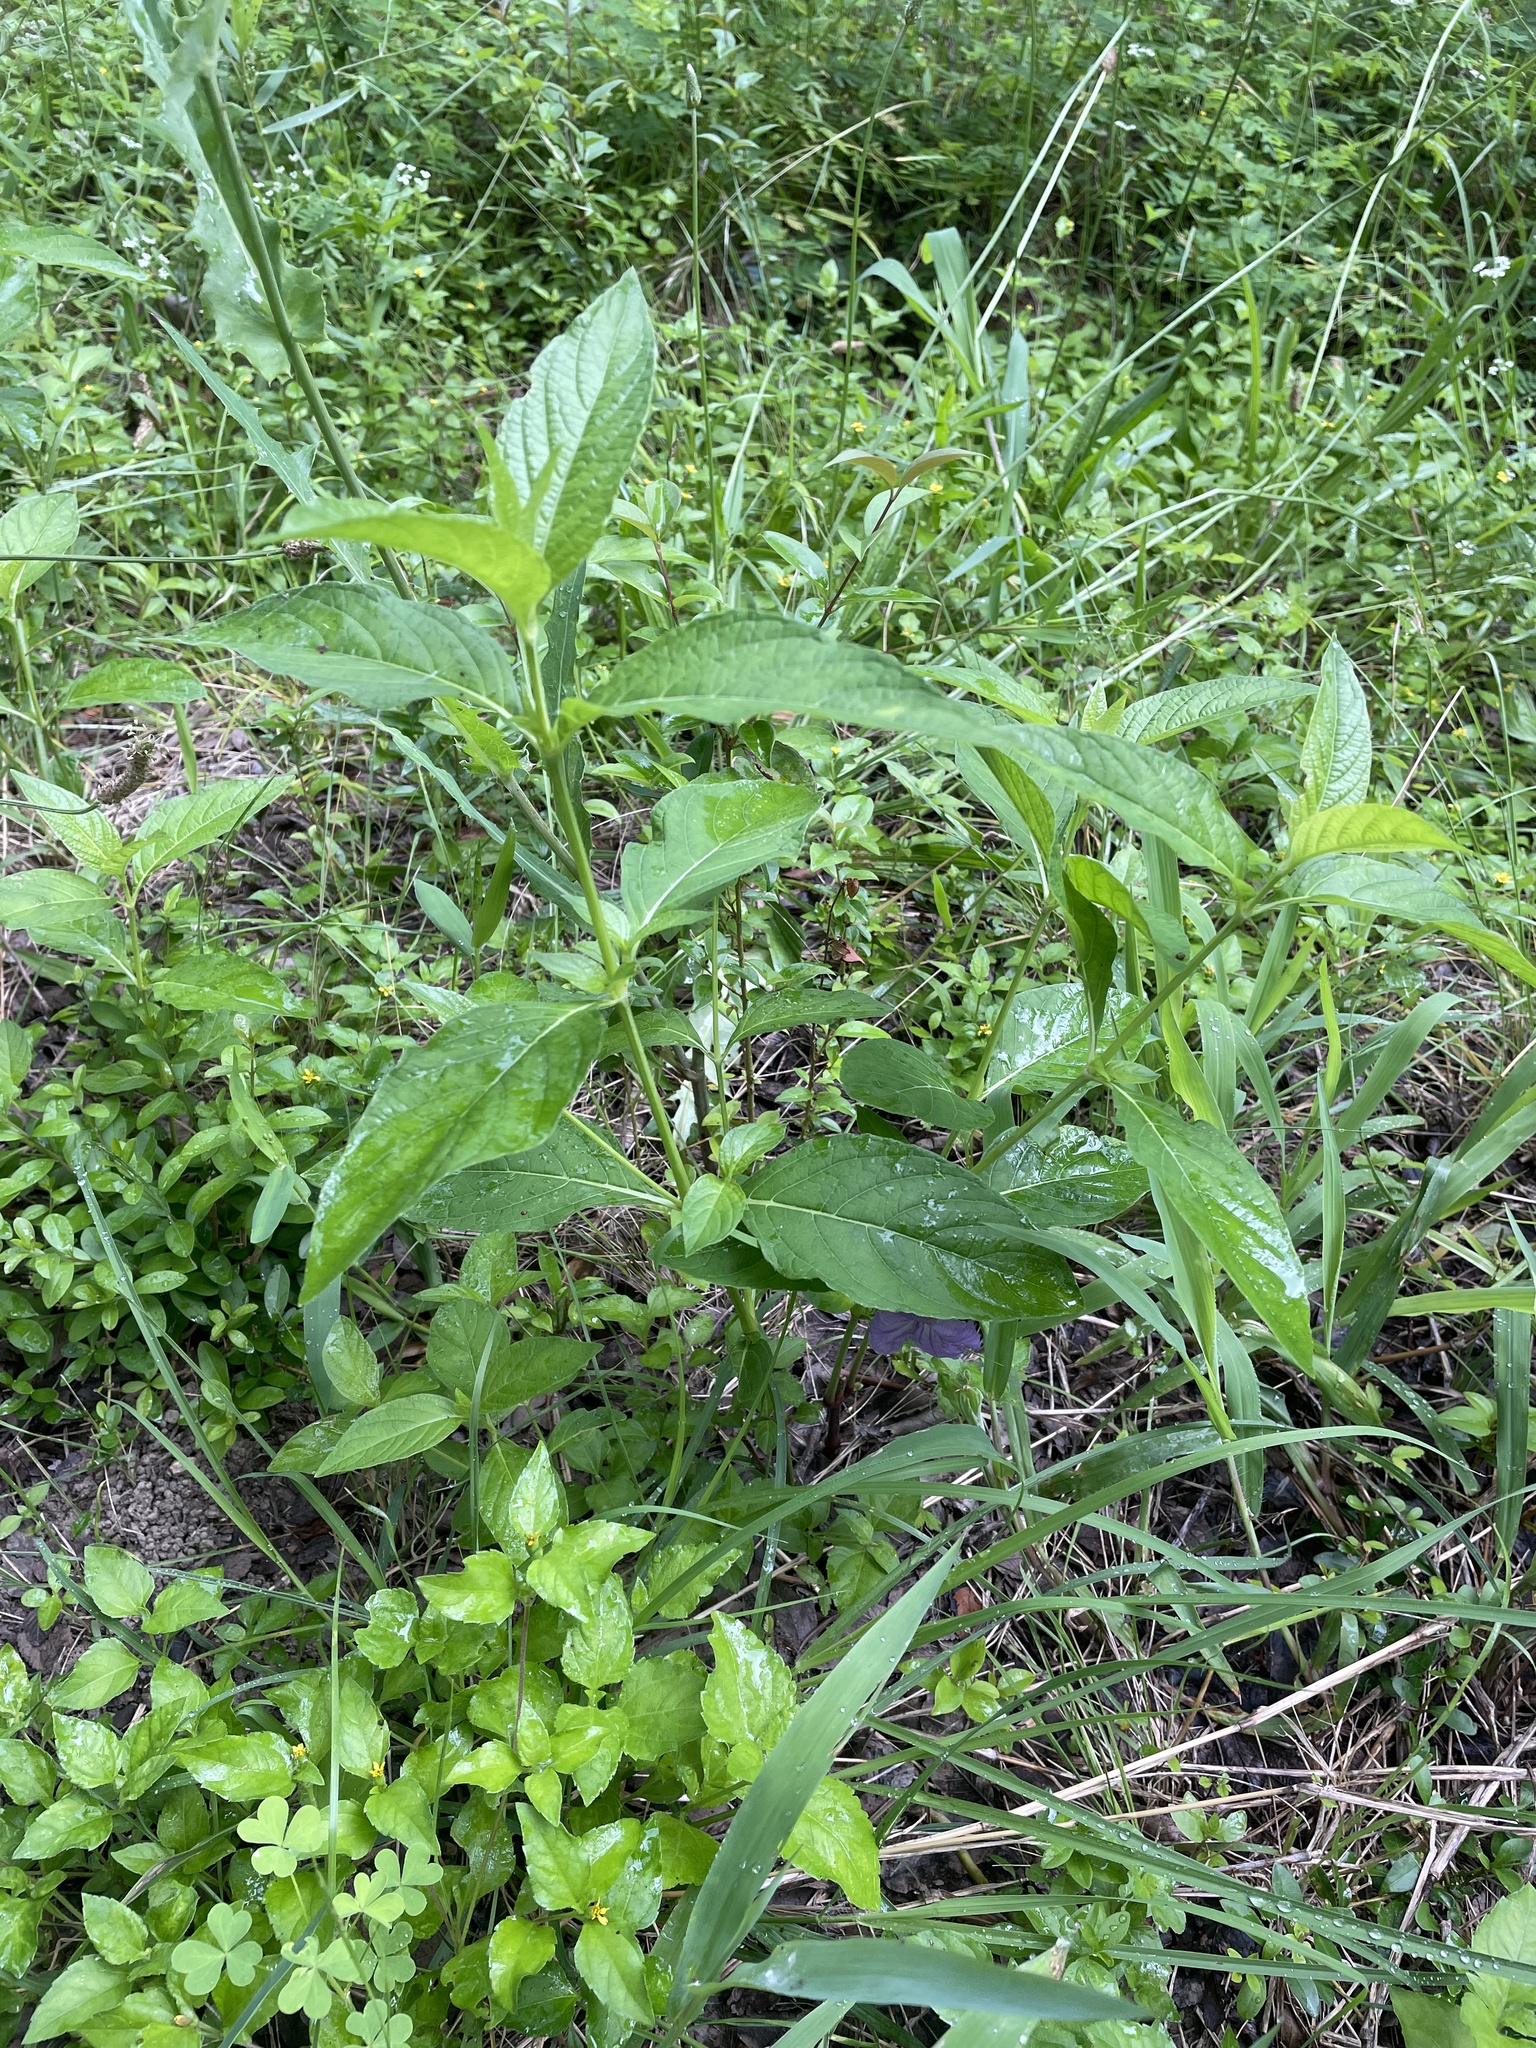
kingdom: Plantae
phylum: Tracheophyta
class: Magnoliopsida
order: Lamiales
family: Acanthaceae
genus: Ruellia
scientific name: Ruellia strepens
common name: Limestone wild petunia
